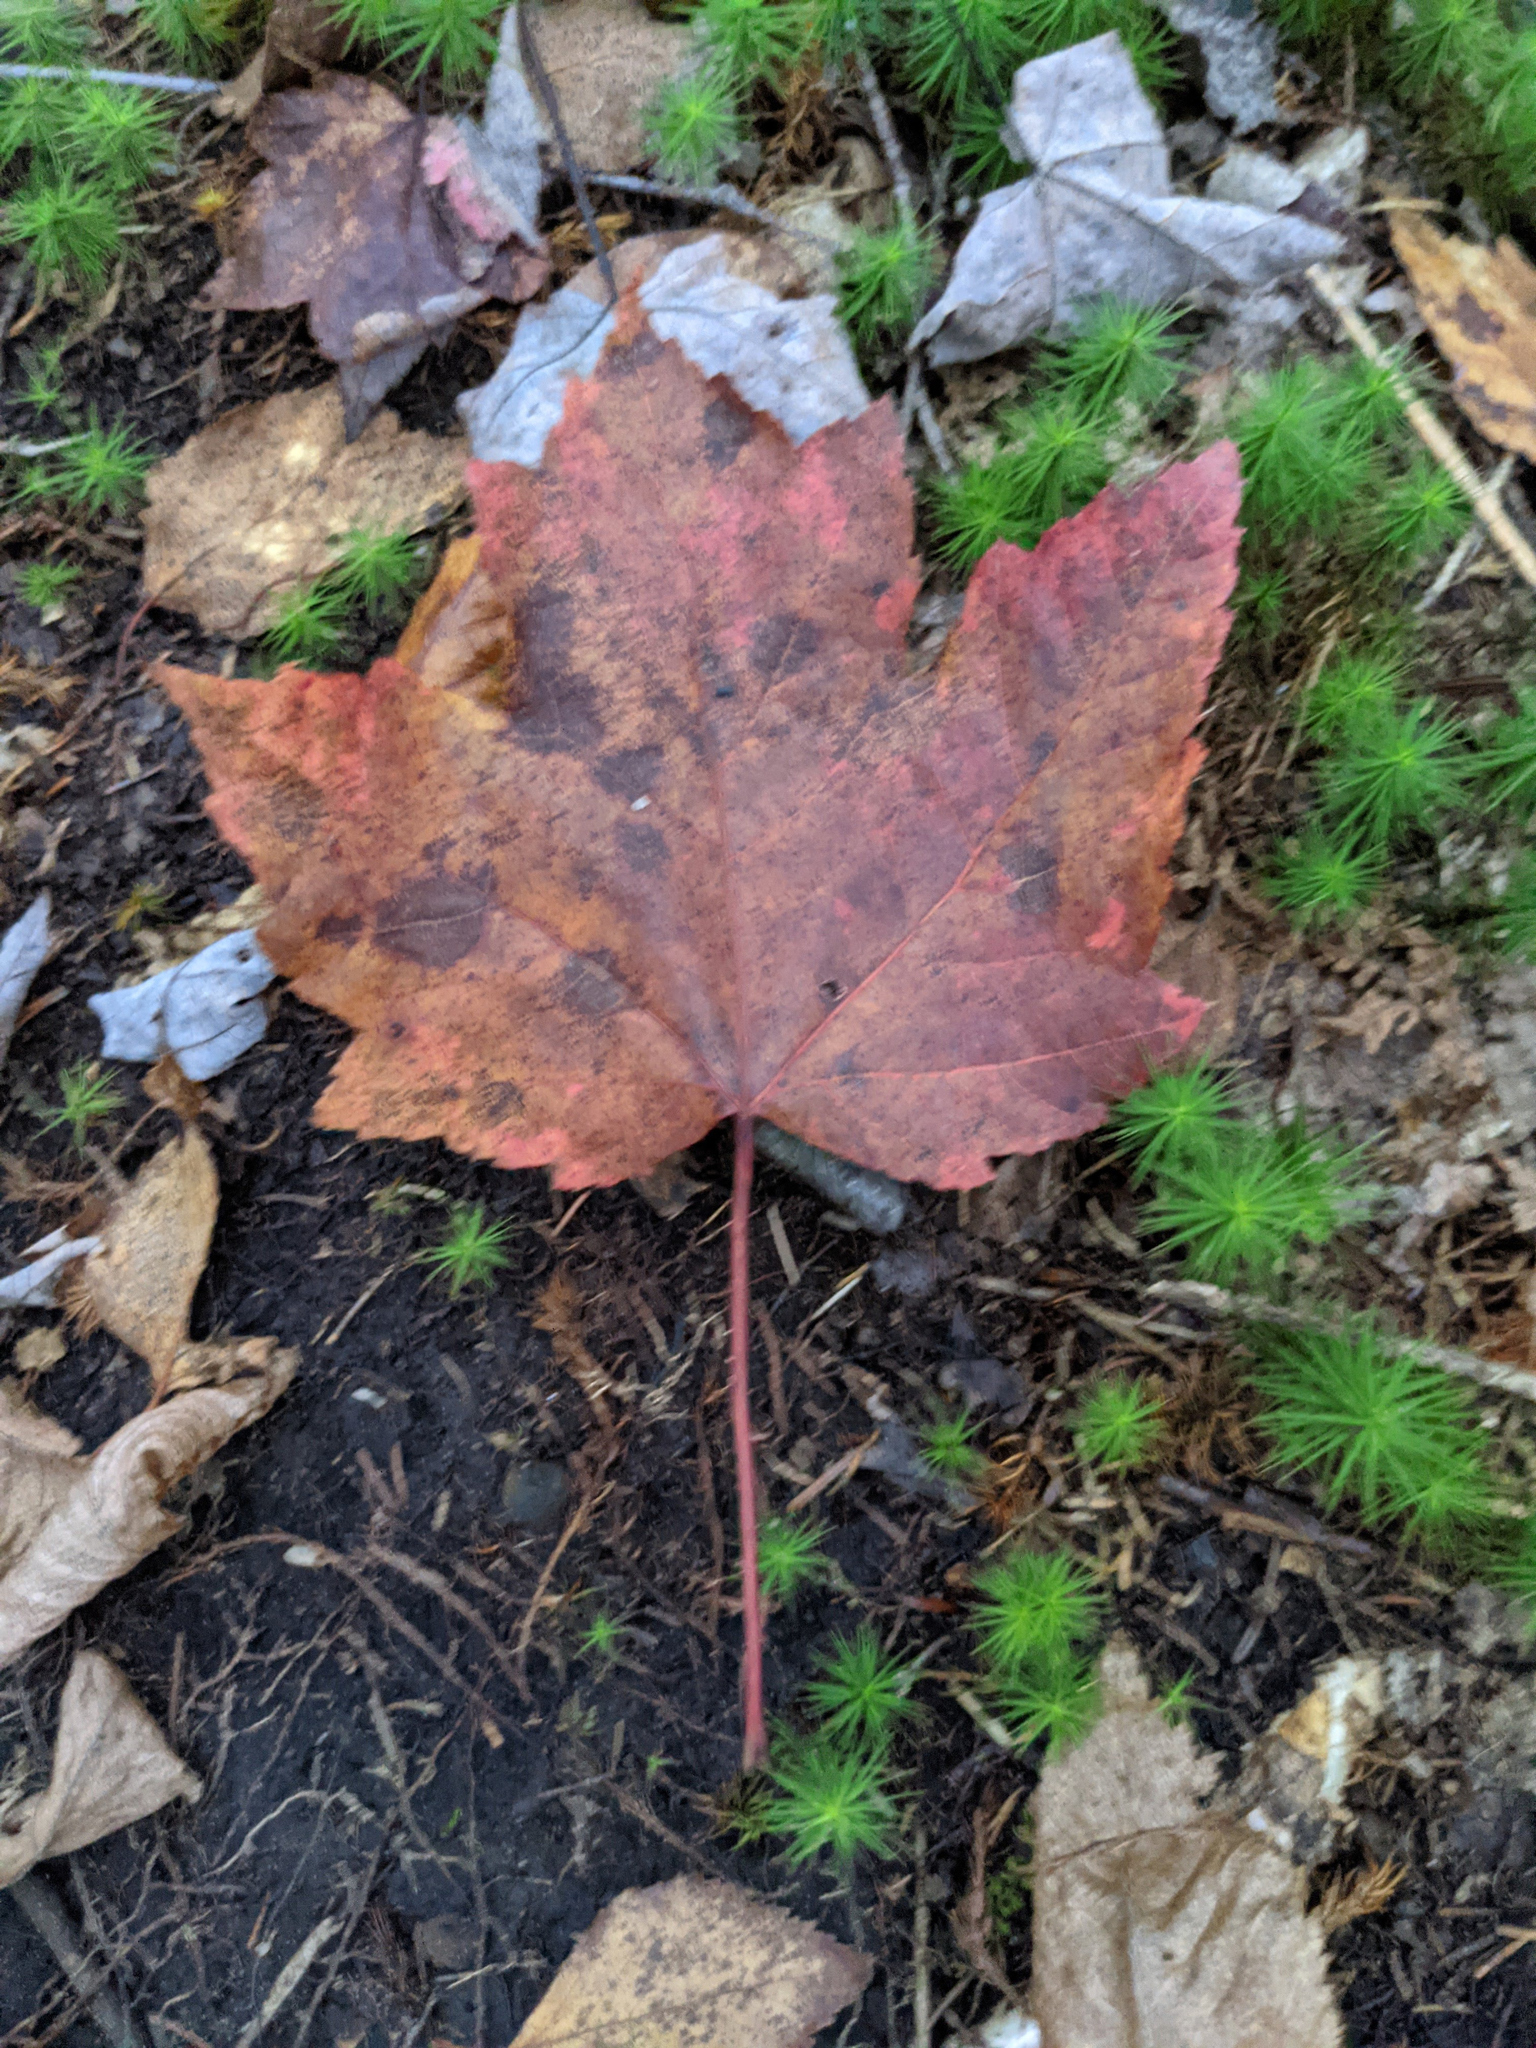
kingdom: Plantae
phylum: Tracheophyta
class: Magnoliopsida
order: Sapindales
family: Sapindaceae
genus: Acer
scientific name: Acer rubrum
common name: Red maple
